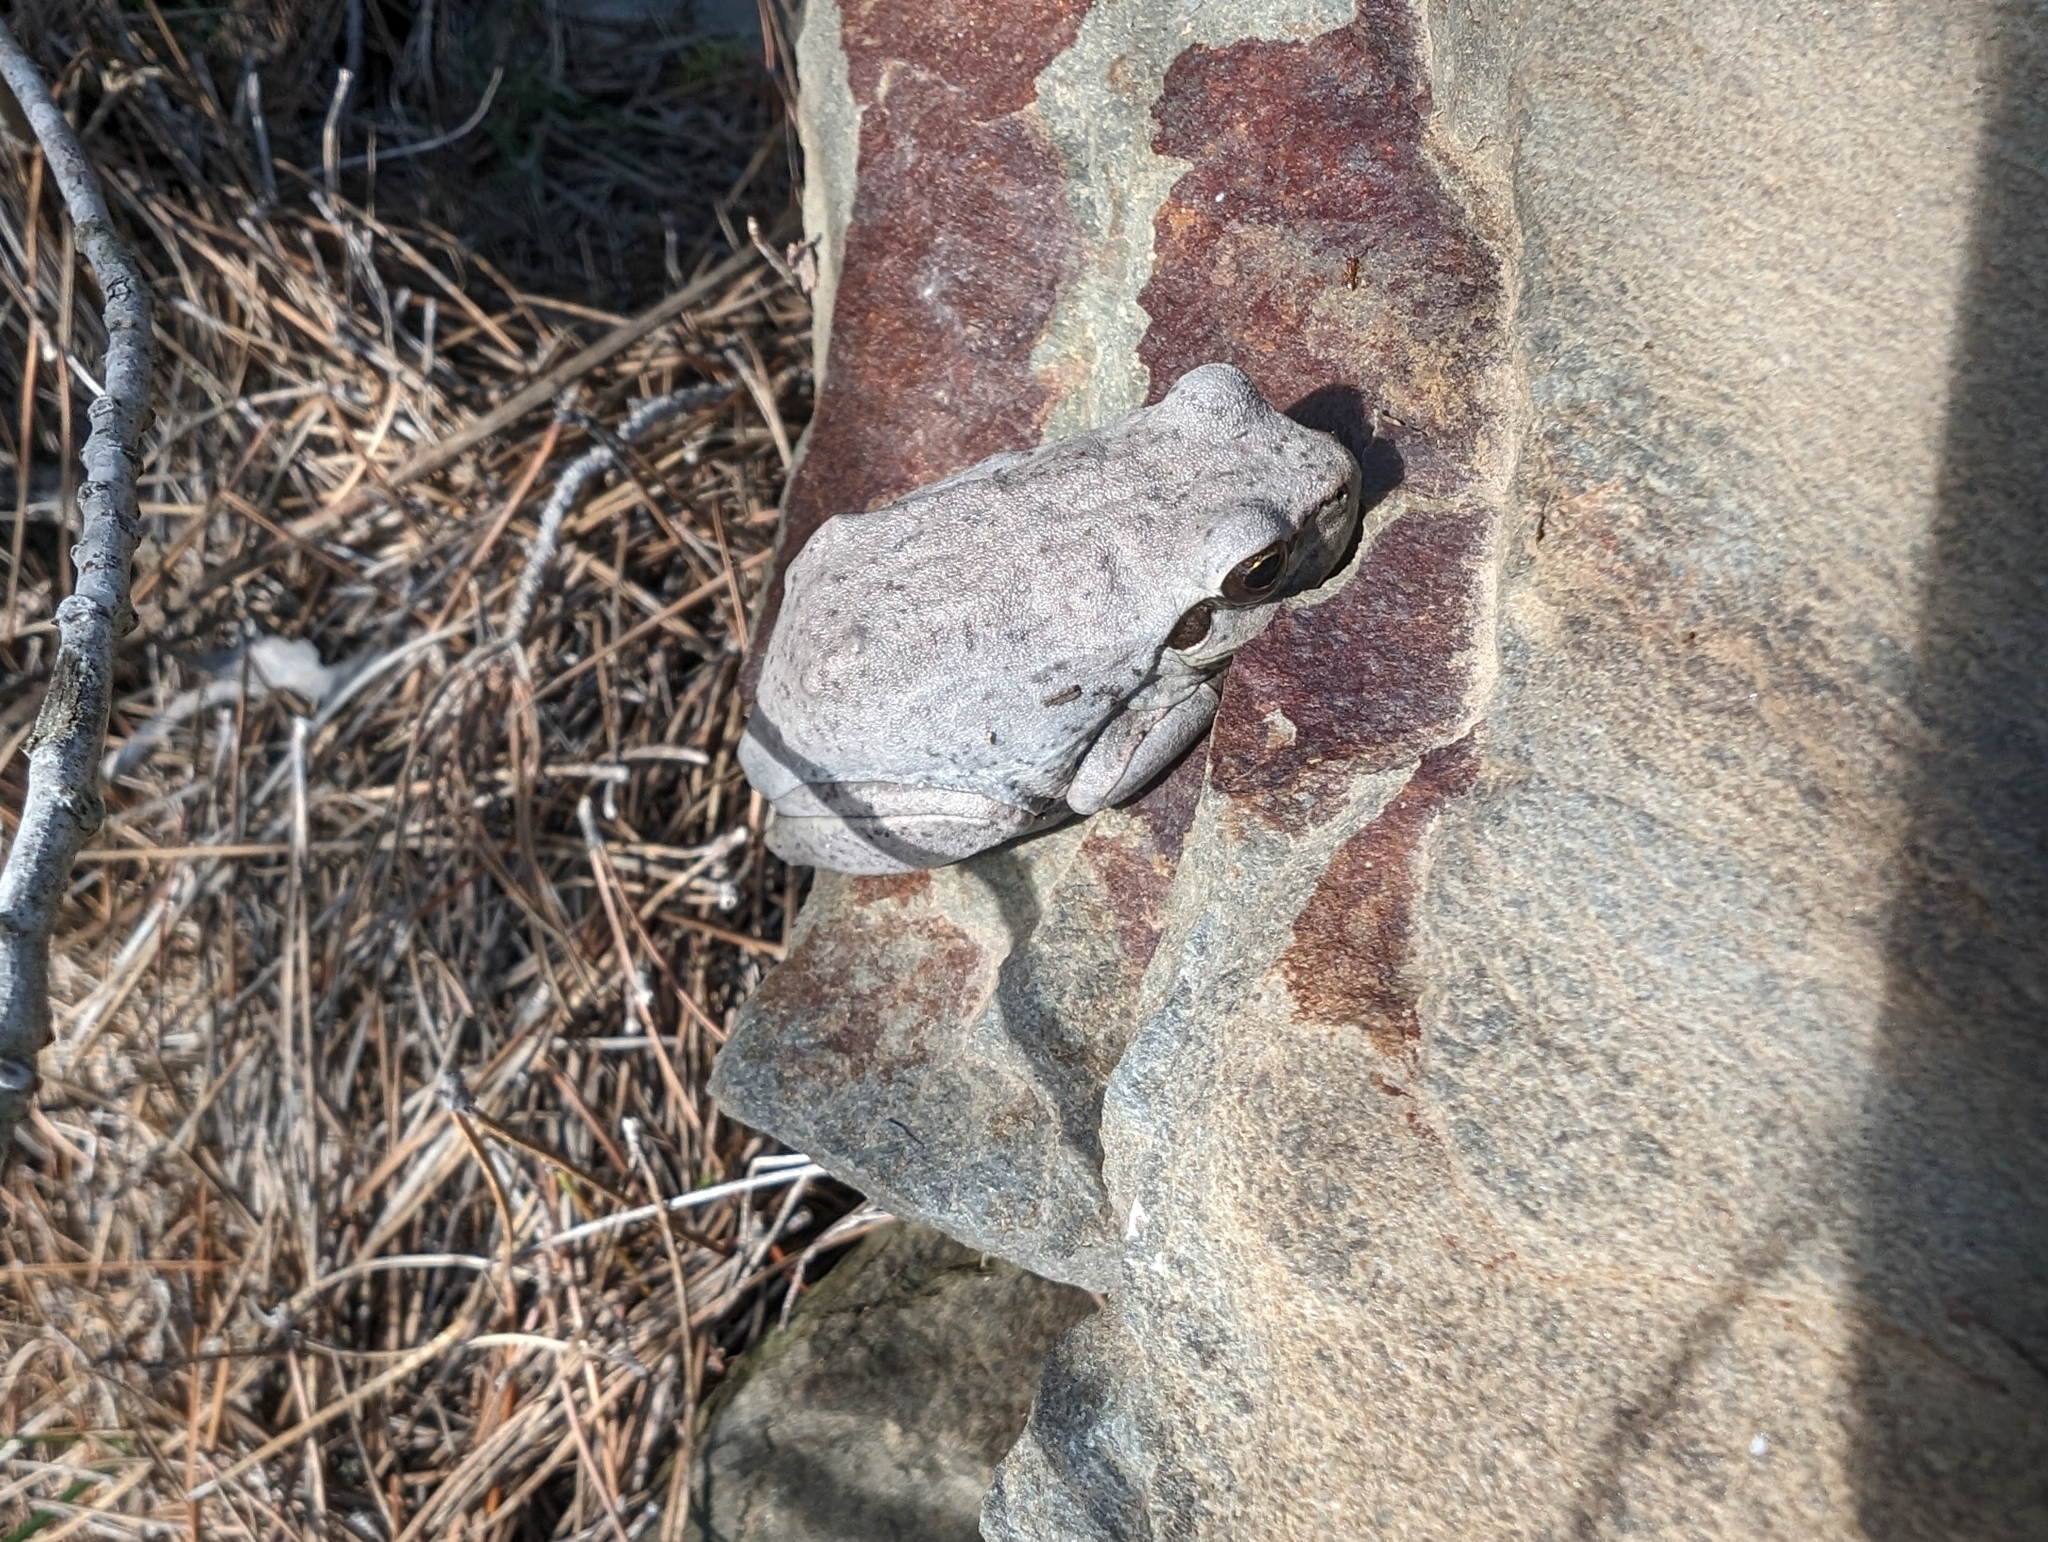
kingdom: Animalia
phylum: Chordata
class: Amphibia
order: Anura
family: Hylidae
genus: Hyla
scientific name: Hyla meridionalis
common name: Stripeless tree frog
